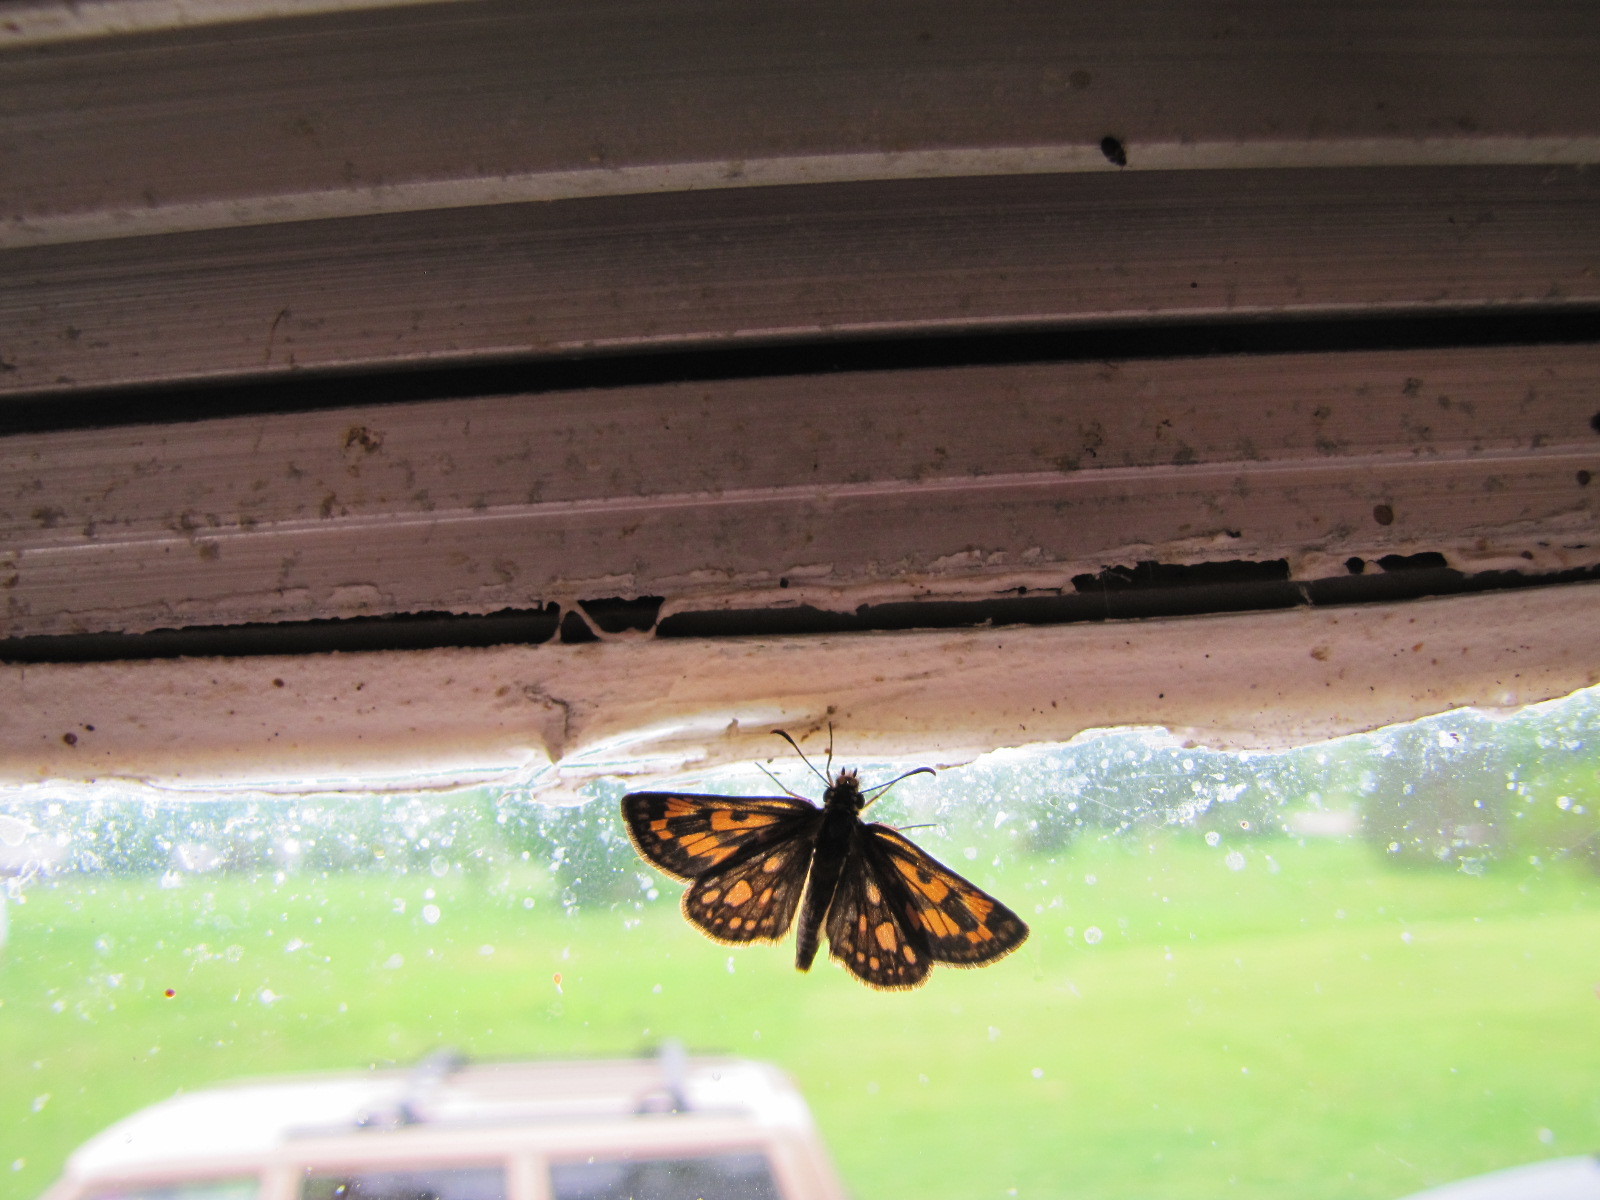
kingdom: Animalia
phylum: Arthropoda
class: Insecta
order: Lepidoptera
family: Hesperiidae
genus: Carterocephalus
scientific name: Carterocephalus mandan
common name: Arctic skipperling
